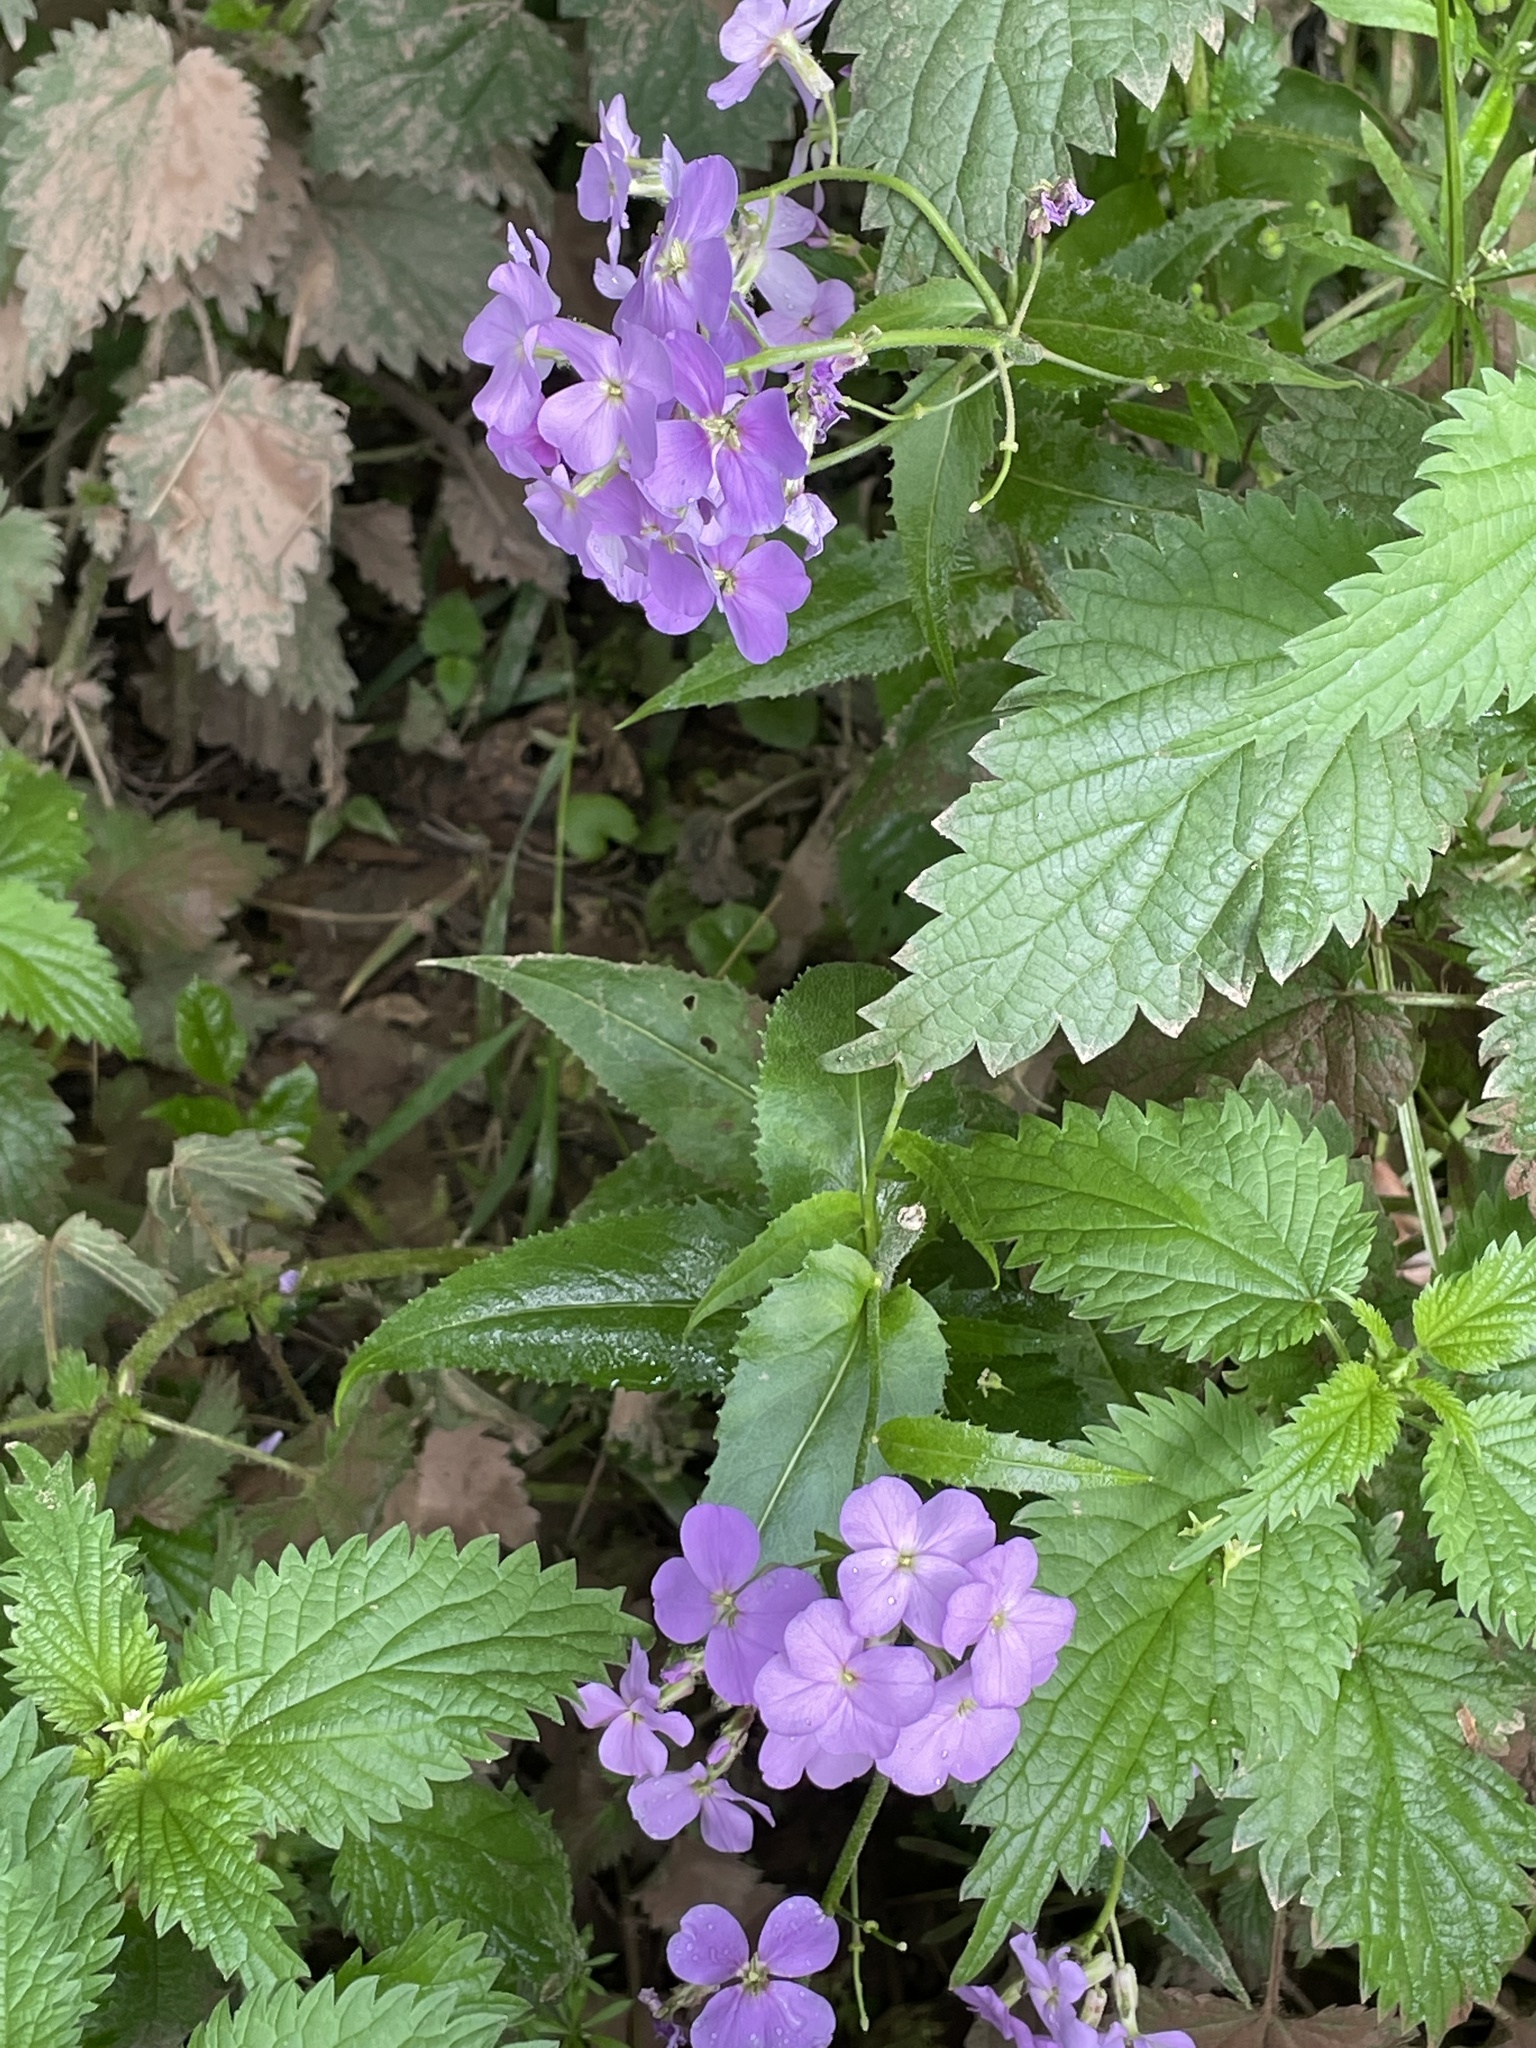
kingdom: Plantae
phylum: Tracheophyta
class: Magnoliopsida
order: Brassicales
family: Brassicaceae
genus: Hesperis
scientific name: Hesperis matronalis
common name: Dame's-violet
